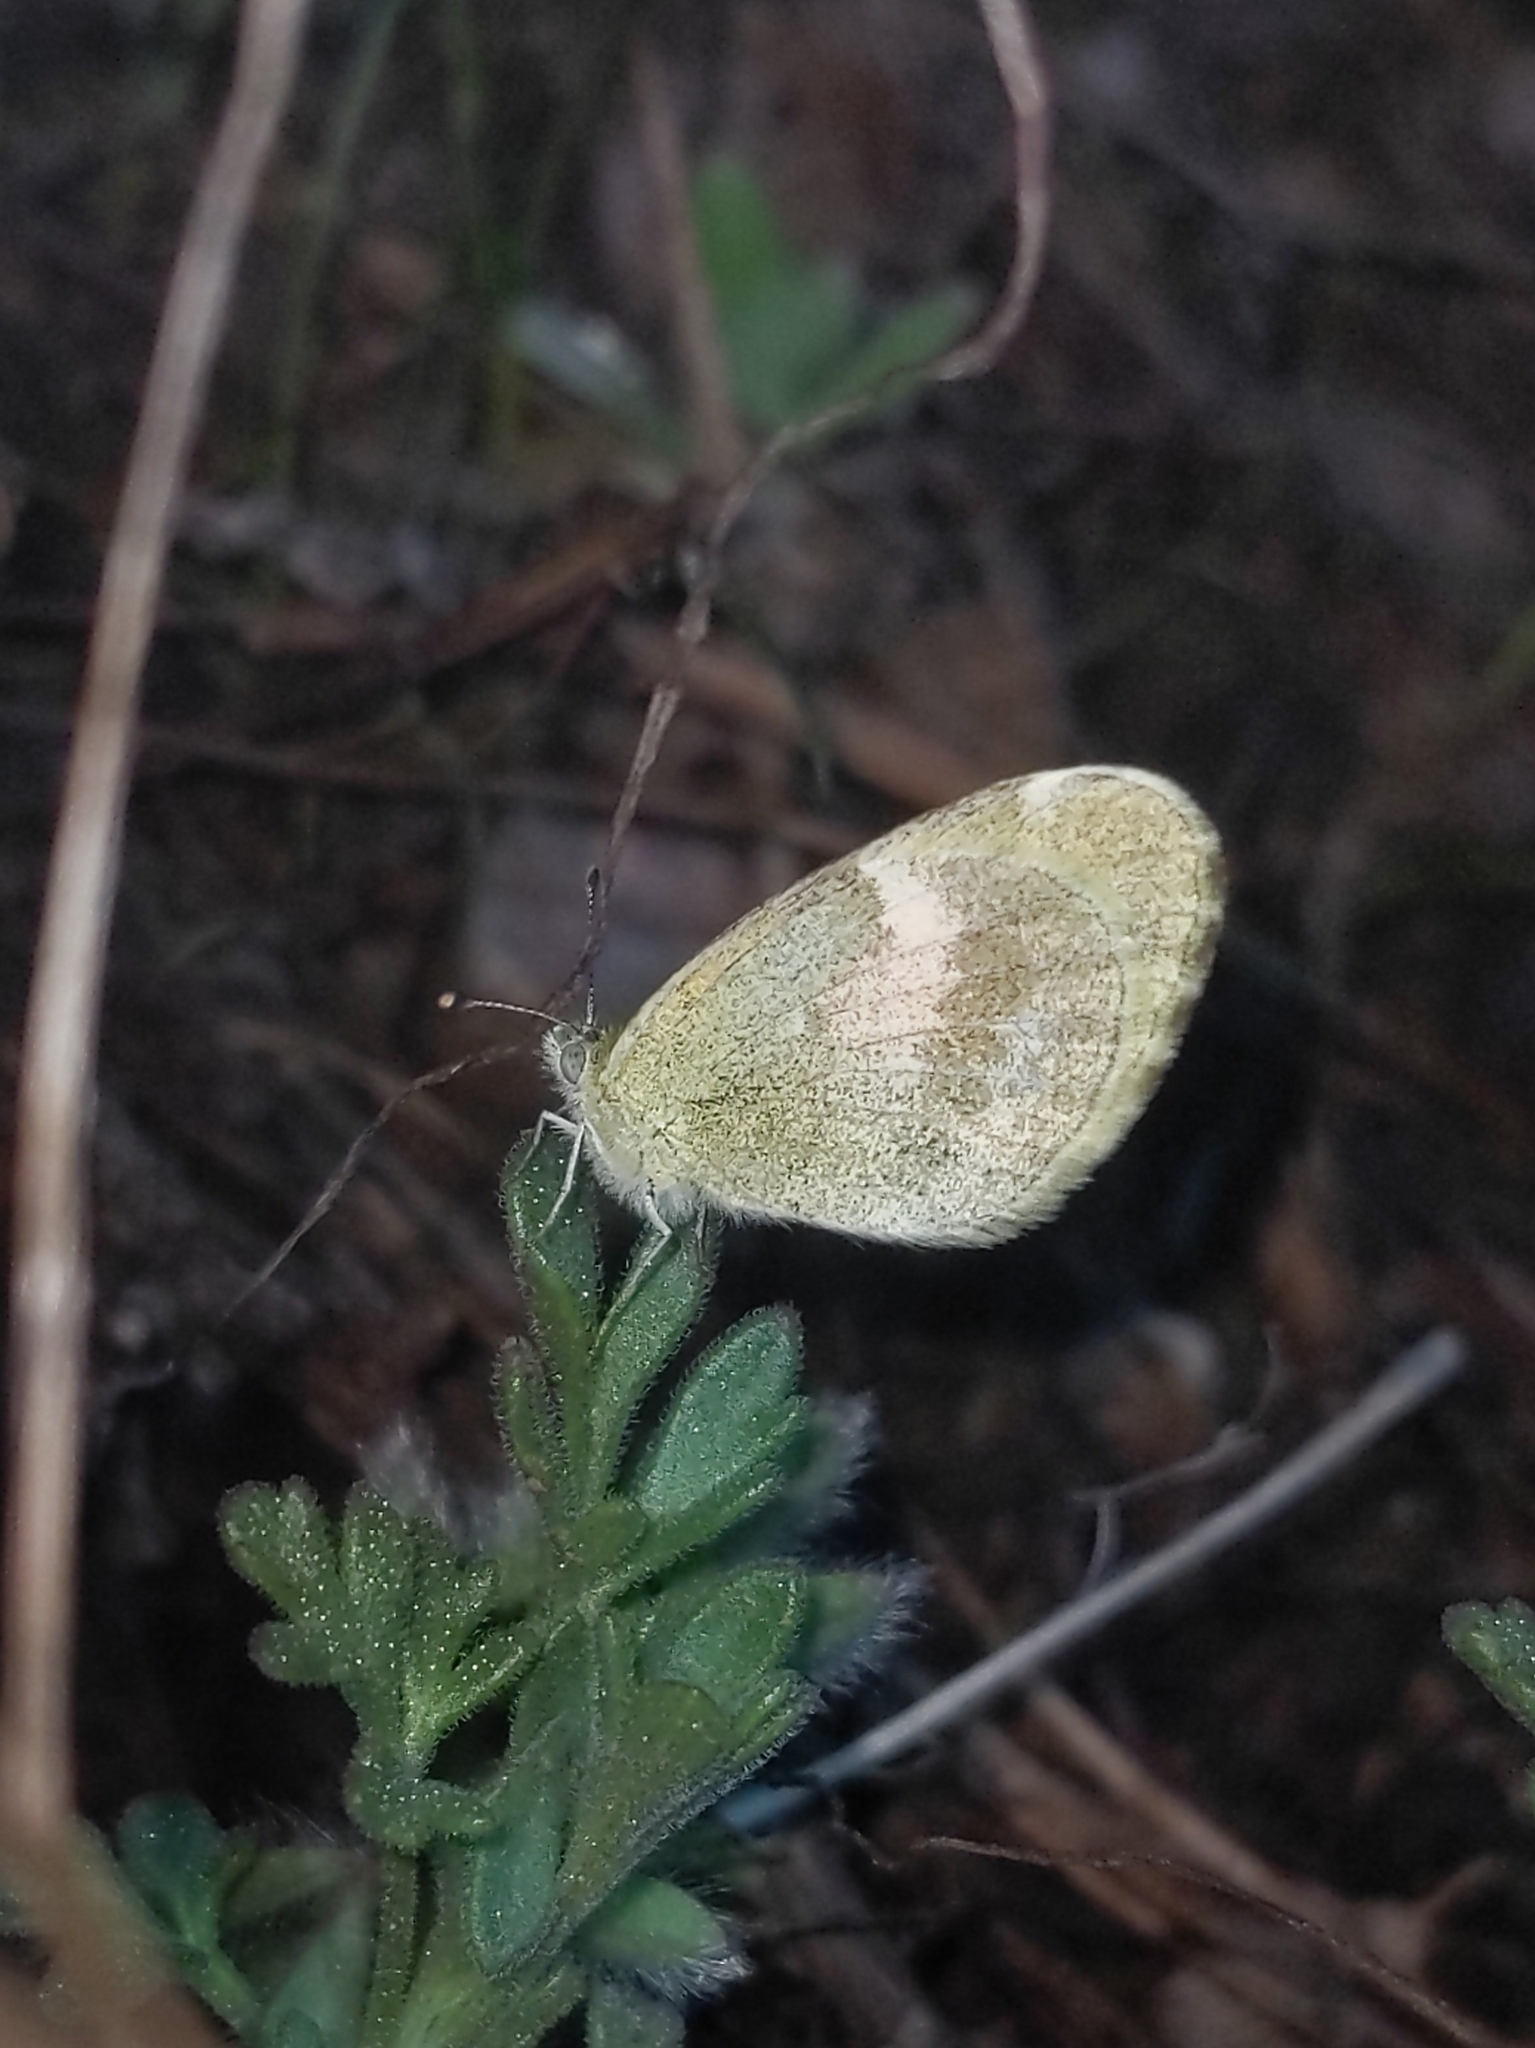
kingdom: Animalia
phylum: Arthropoda
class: Insecta
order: Lepidoptera
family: Pieridae
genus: Nathalis
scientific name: Nathalis iole
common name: Dainty sulphur
